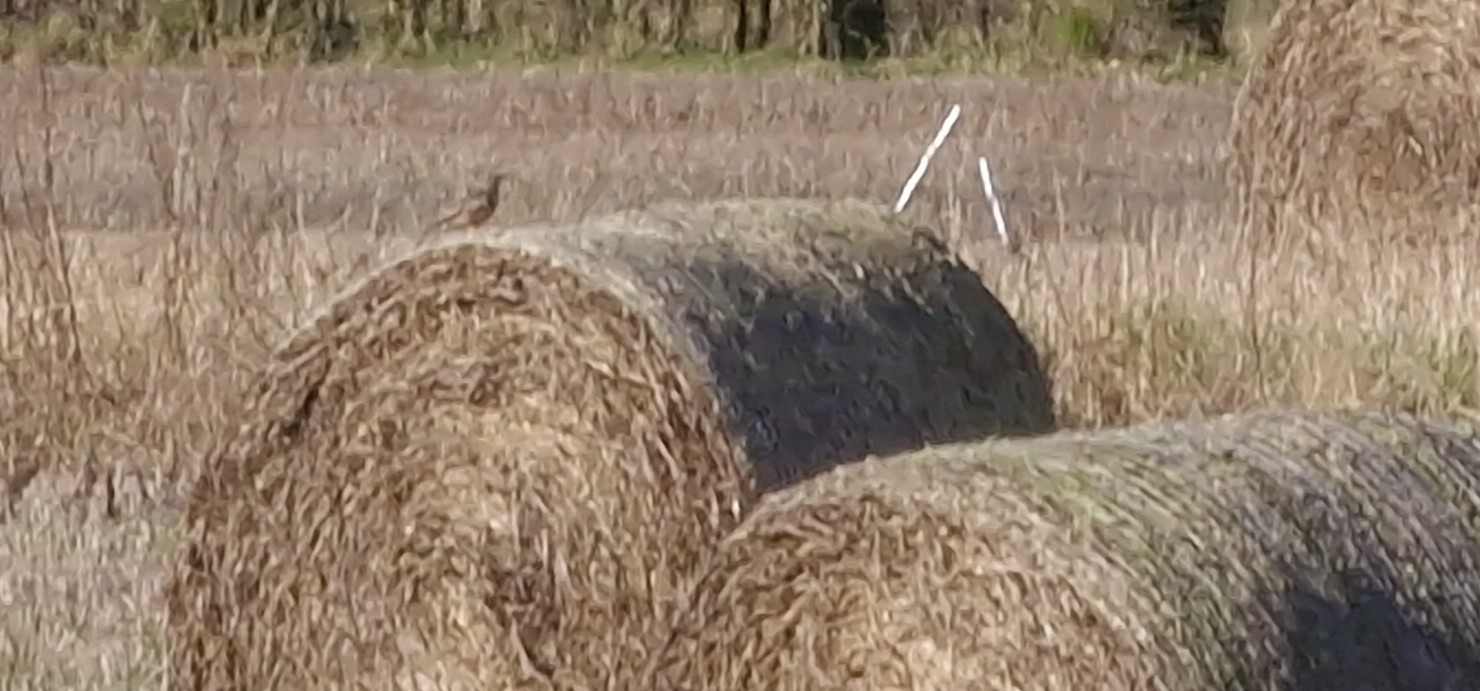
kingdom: Animalia
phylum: Chordata
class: Aves
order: Passeriformes
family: Turdidae
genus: Turdus
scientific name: Turdus viscivorus
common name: Mistle thrush
